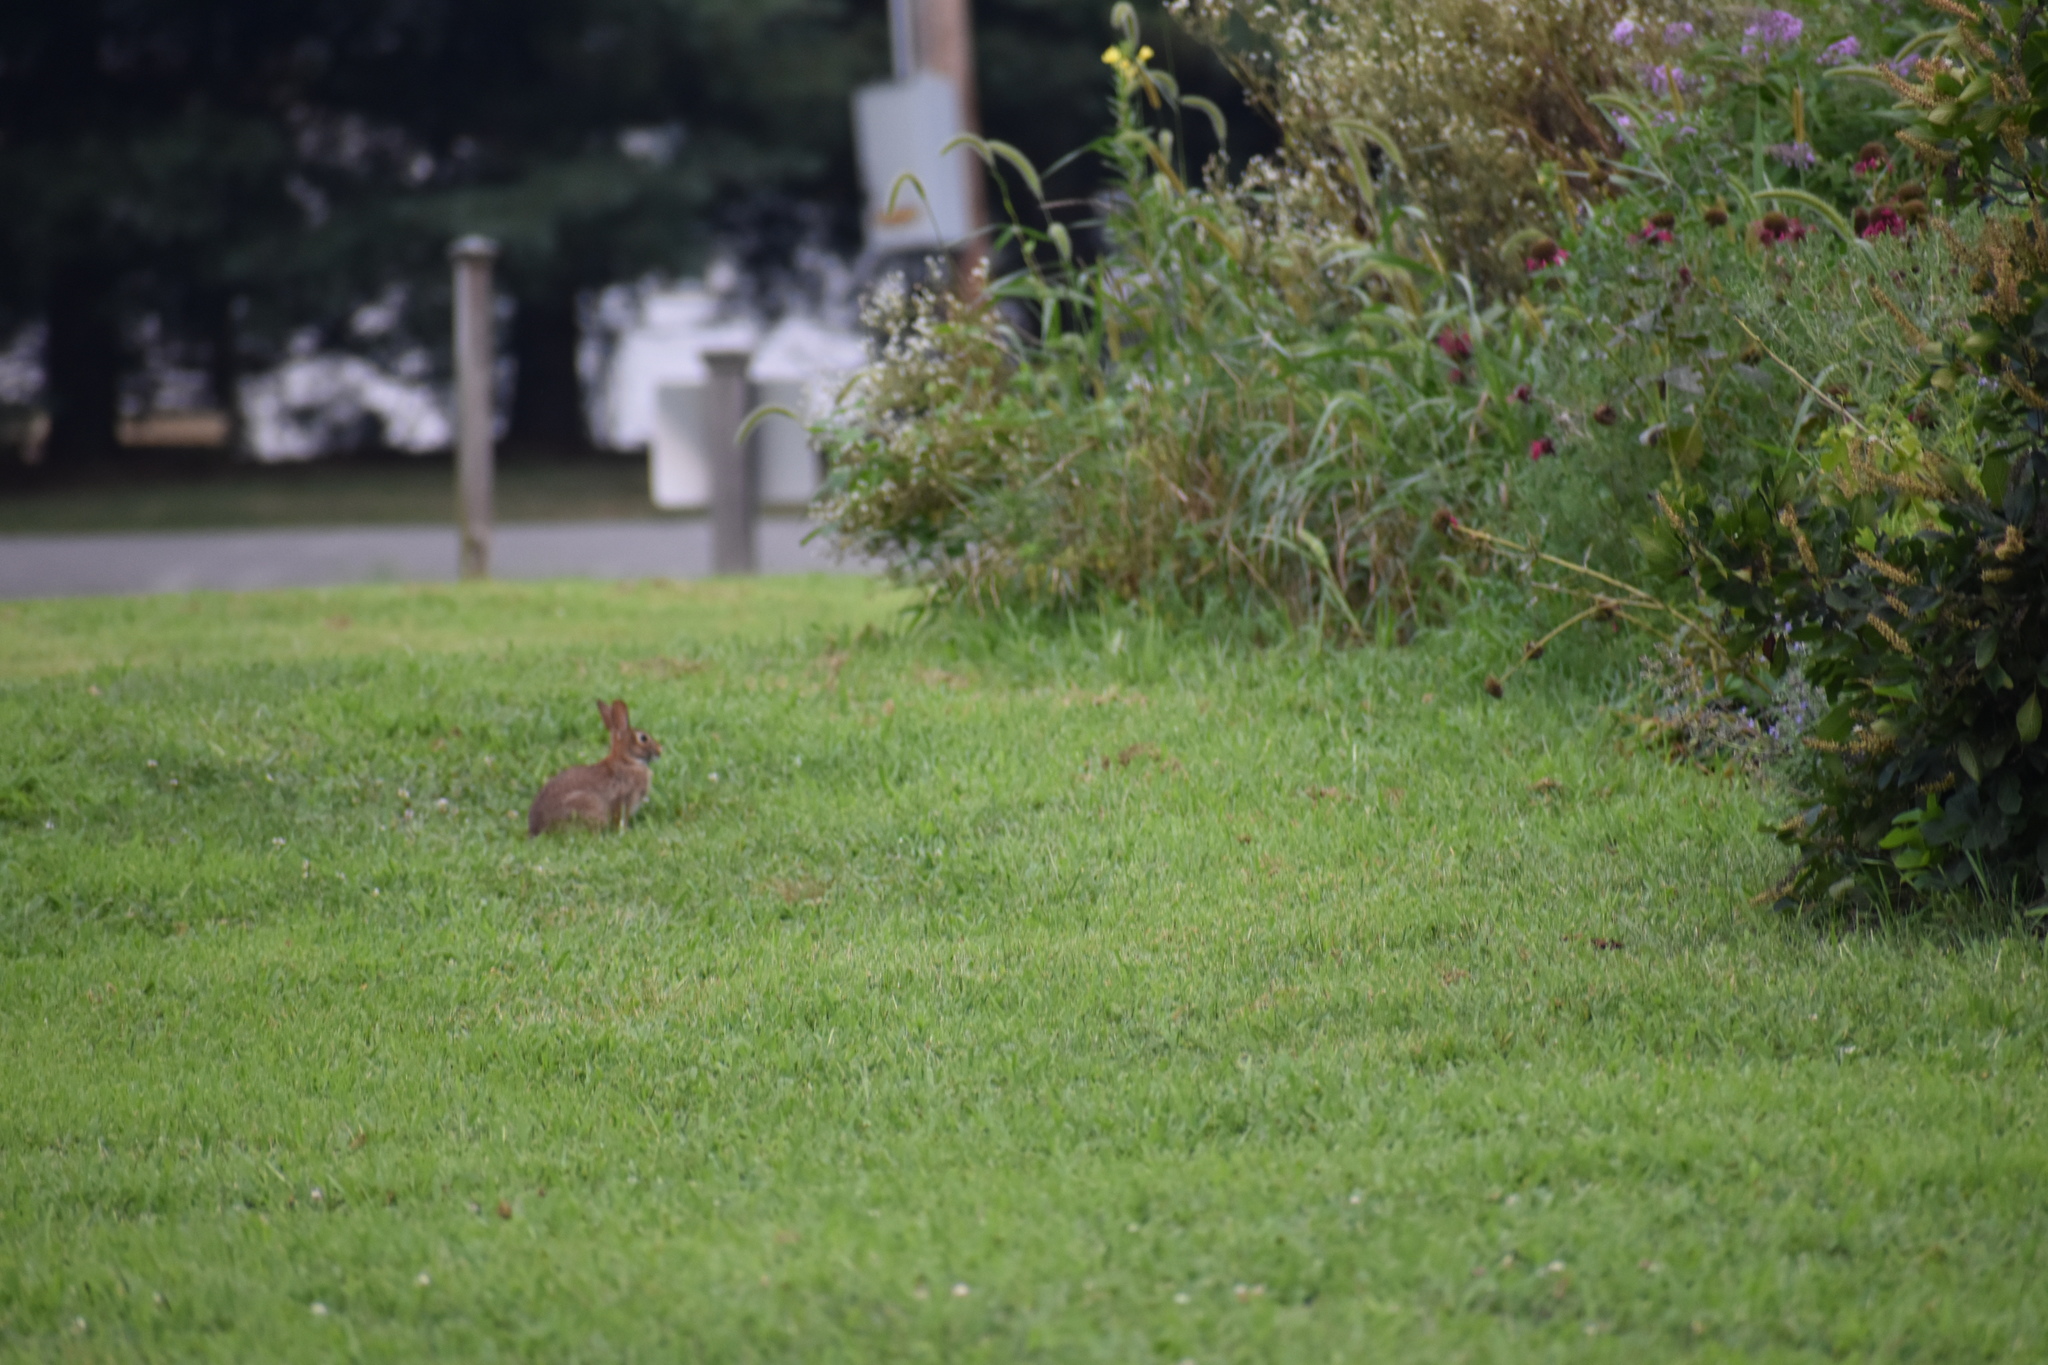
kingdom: Animalia
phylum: Chordata
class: Mammalia
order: Lagomorpha
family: Leporidae
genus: Sylvilagus
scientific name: Sylvilagus floridanus
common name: Eastern cottontail
